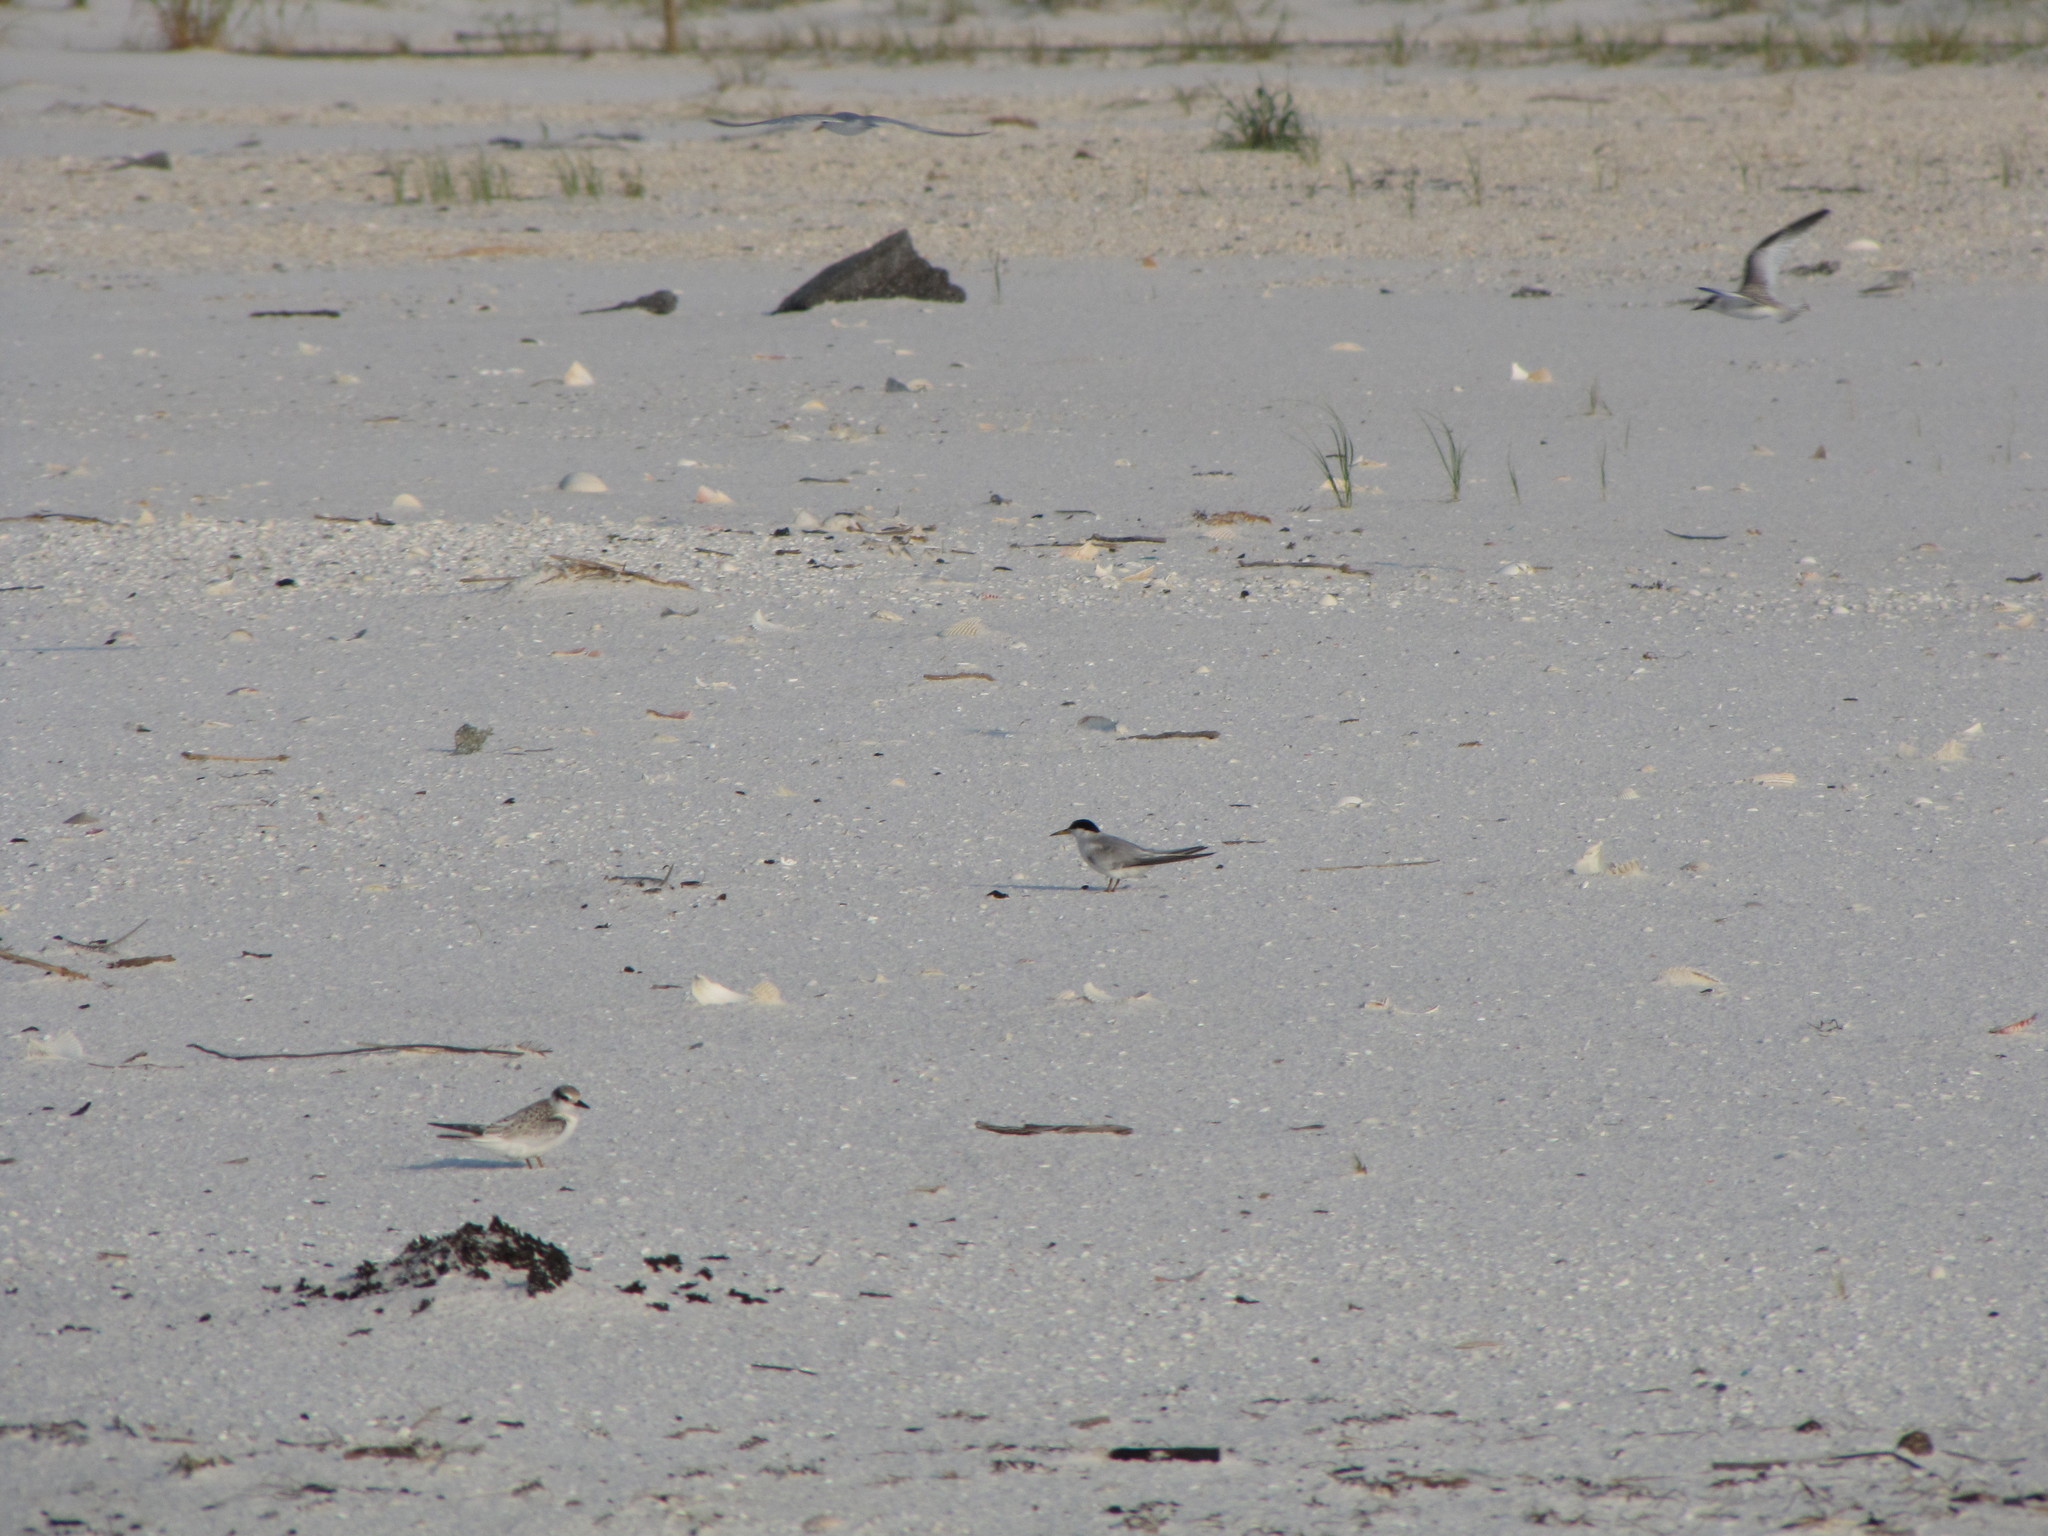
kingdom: Animalia
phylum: Chordata
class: Aves
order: Charadriiformes
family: Laridae
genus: Sternula
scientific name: Sternula antillarum
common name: Least tern
